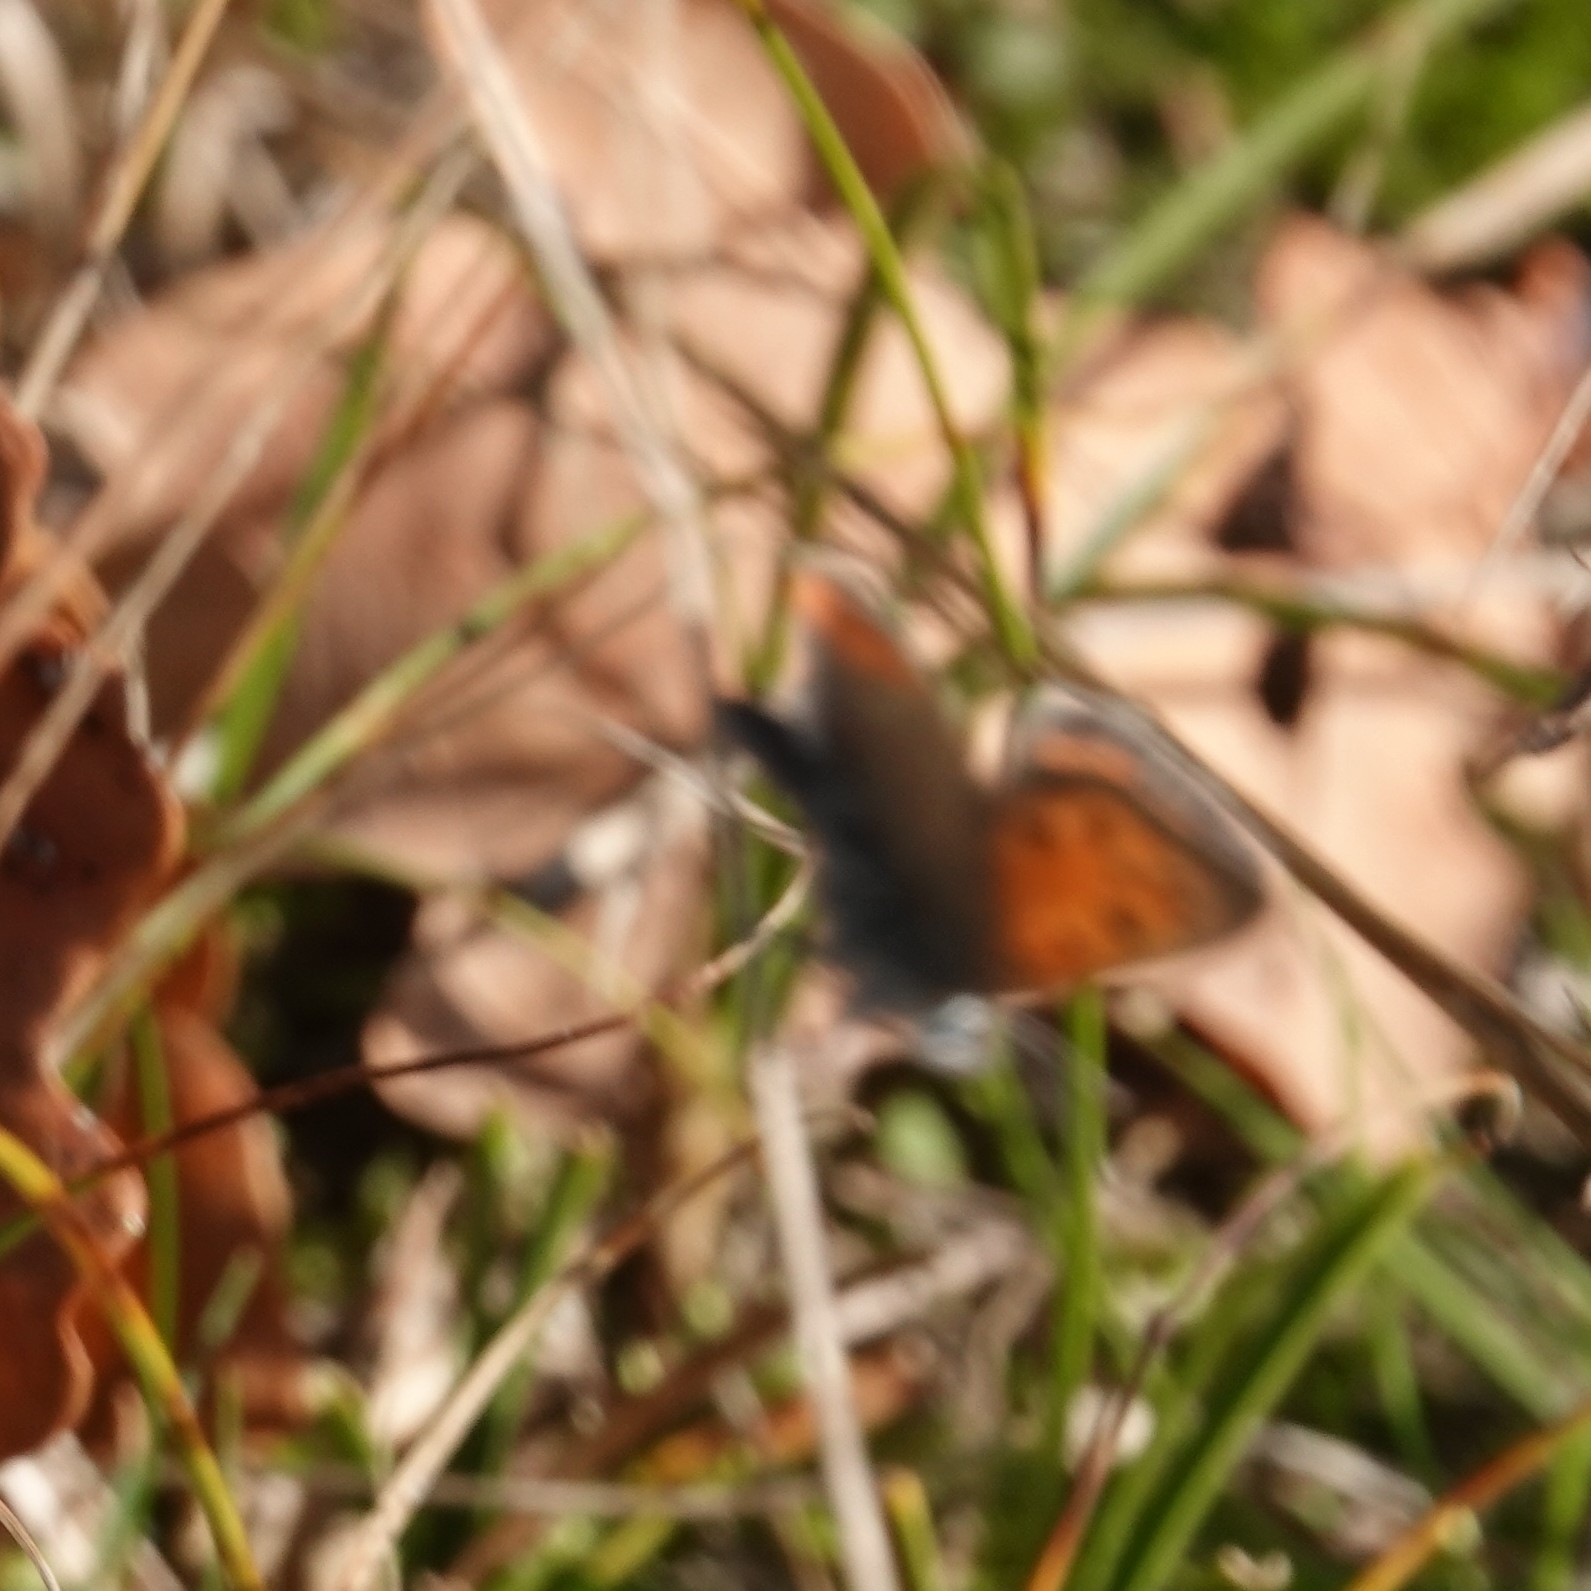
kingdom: Animalia
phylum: Arthropoda
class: Insecta
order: Lepidoptera
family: Lycaenidae
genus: Lycaena
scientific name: Lycaena phlaeas
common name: Small copper
